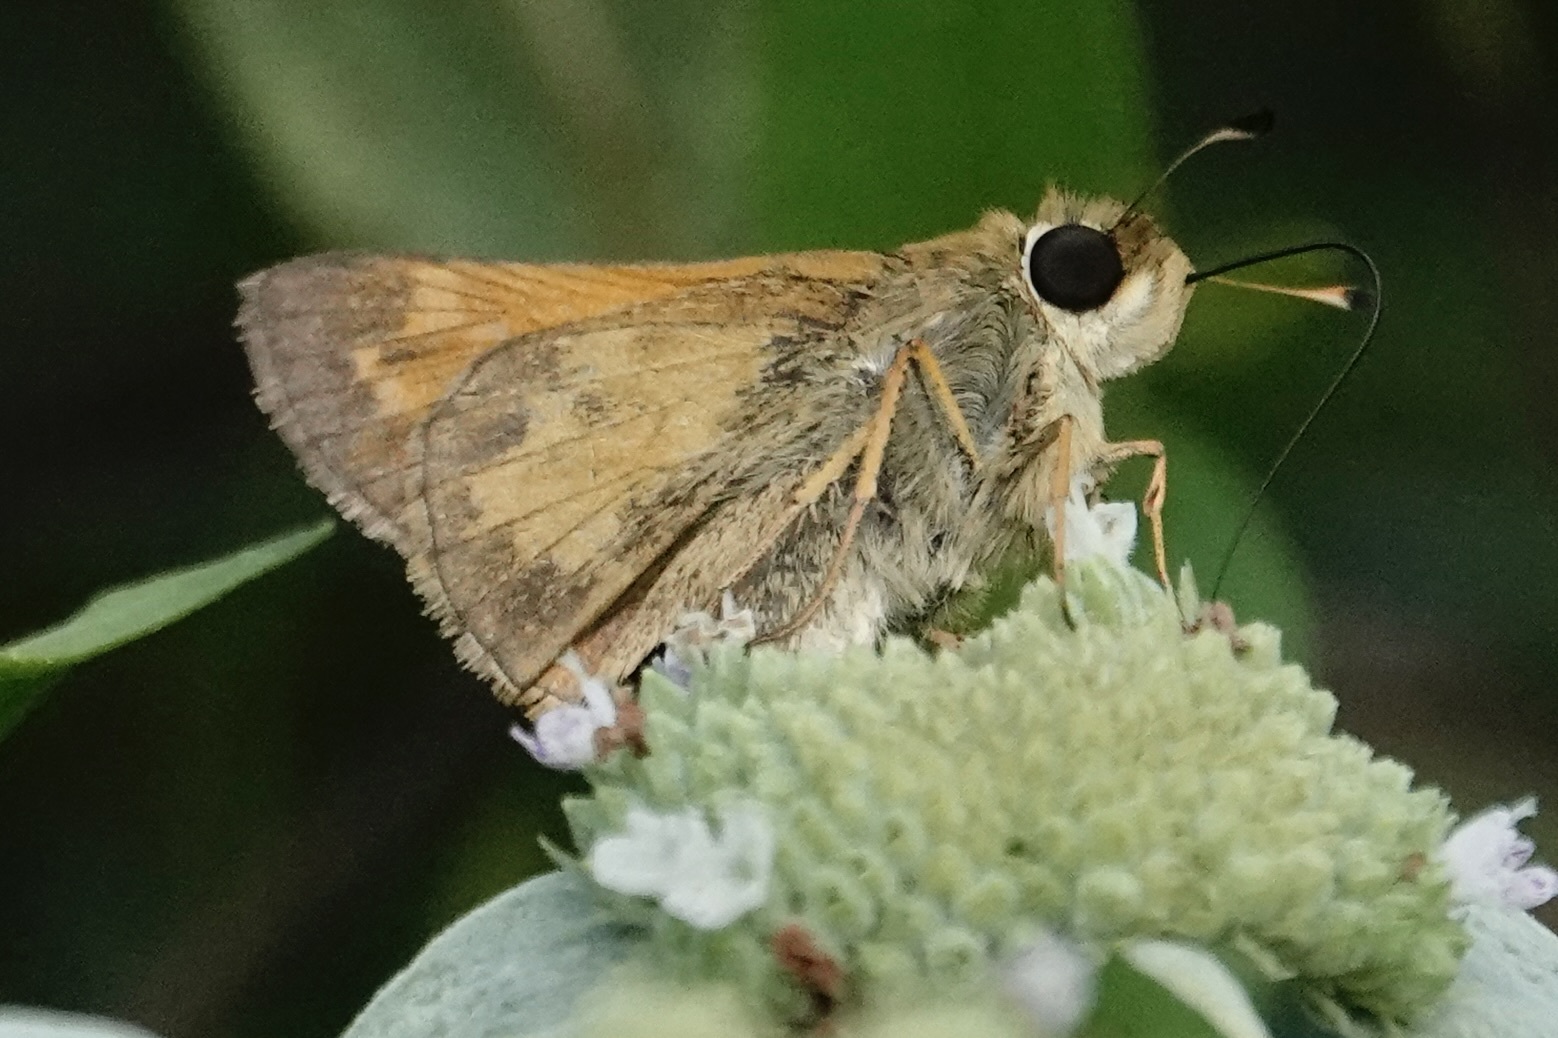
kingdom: Animalia
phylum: Arthropoda
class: Insecta
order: Lepidoptera
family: Hesperiidae
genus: Atalopedes
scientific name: Atalopedes
